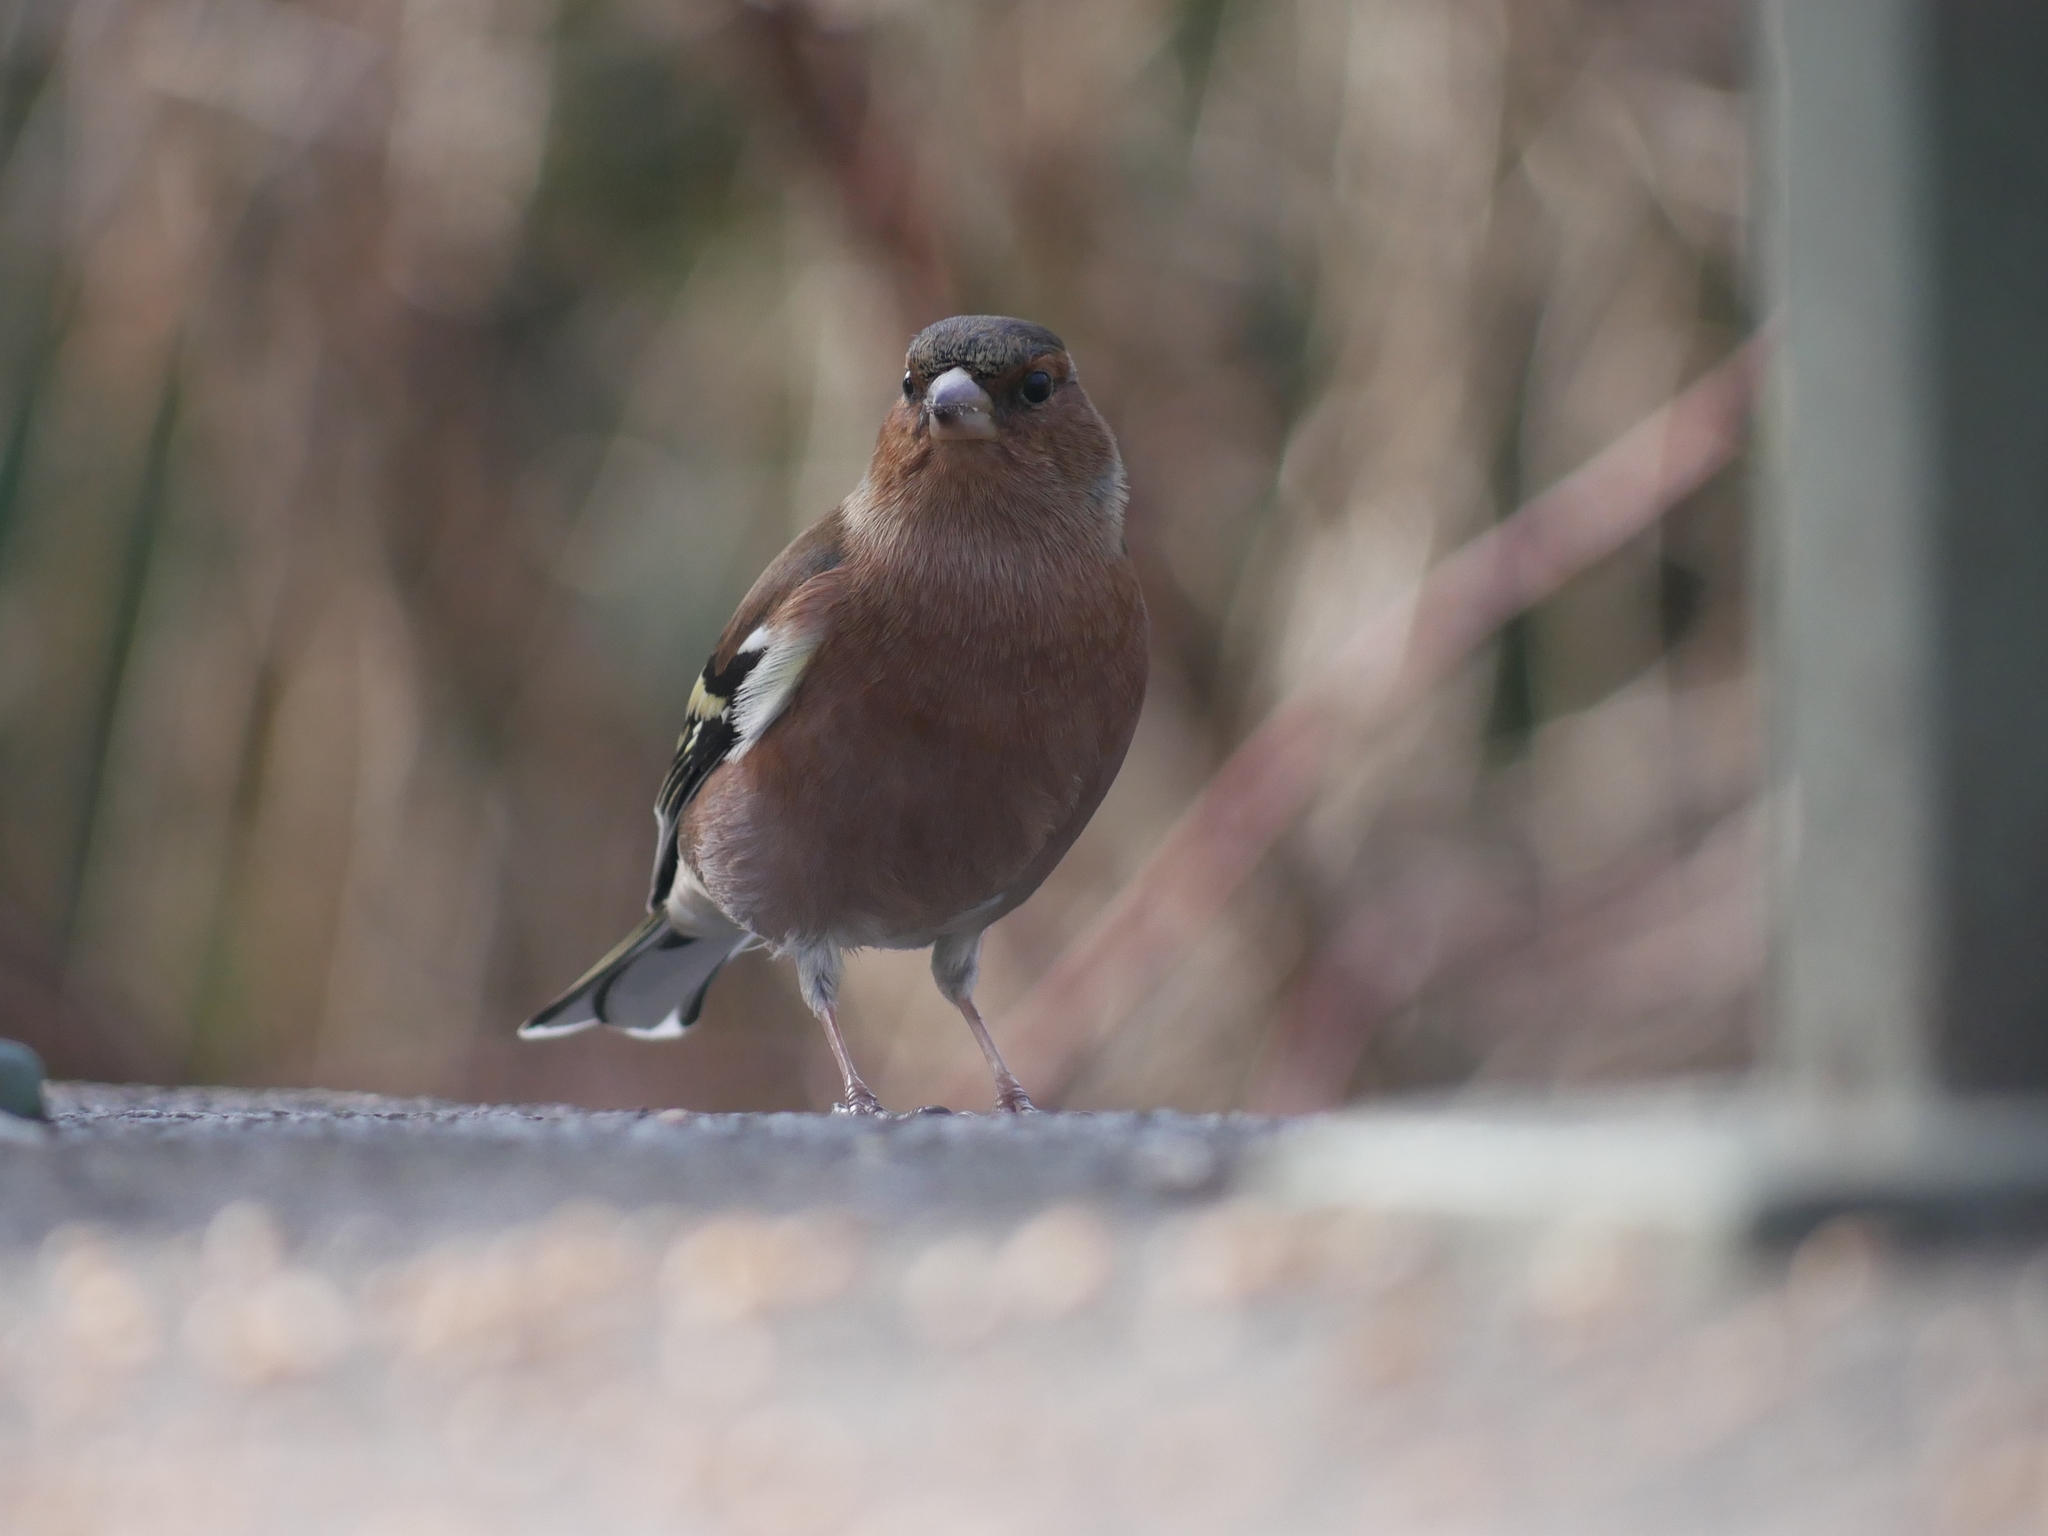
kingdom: Animalia
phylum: Chordata
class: Aves
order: Passeriformes
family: Fringillidae
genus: Fringilla
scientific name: Fringilla coelebs
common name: Common chaffinch
